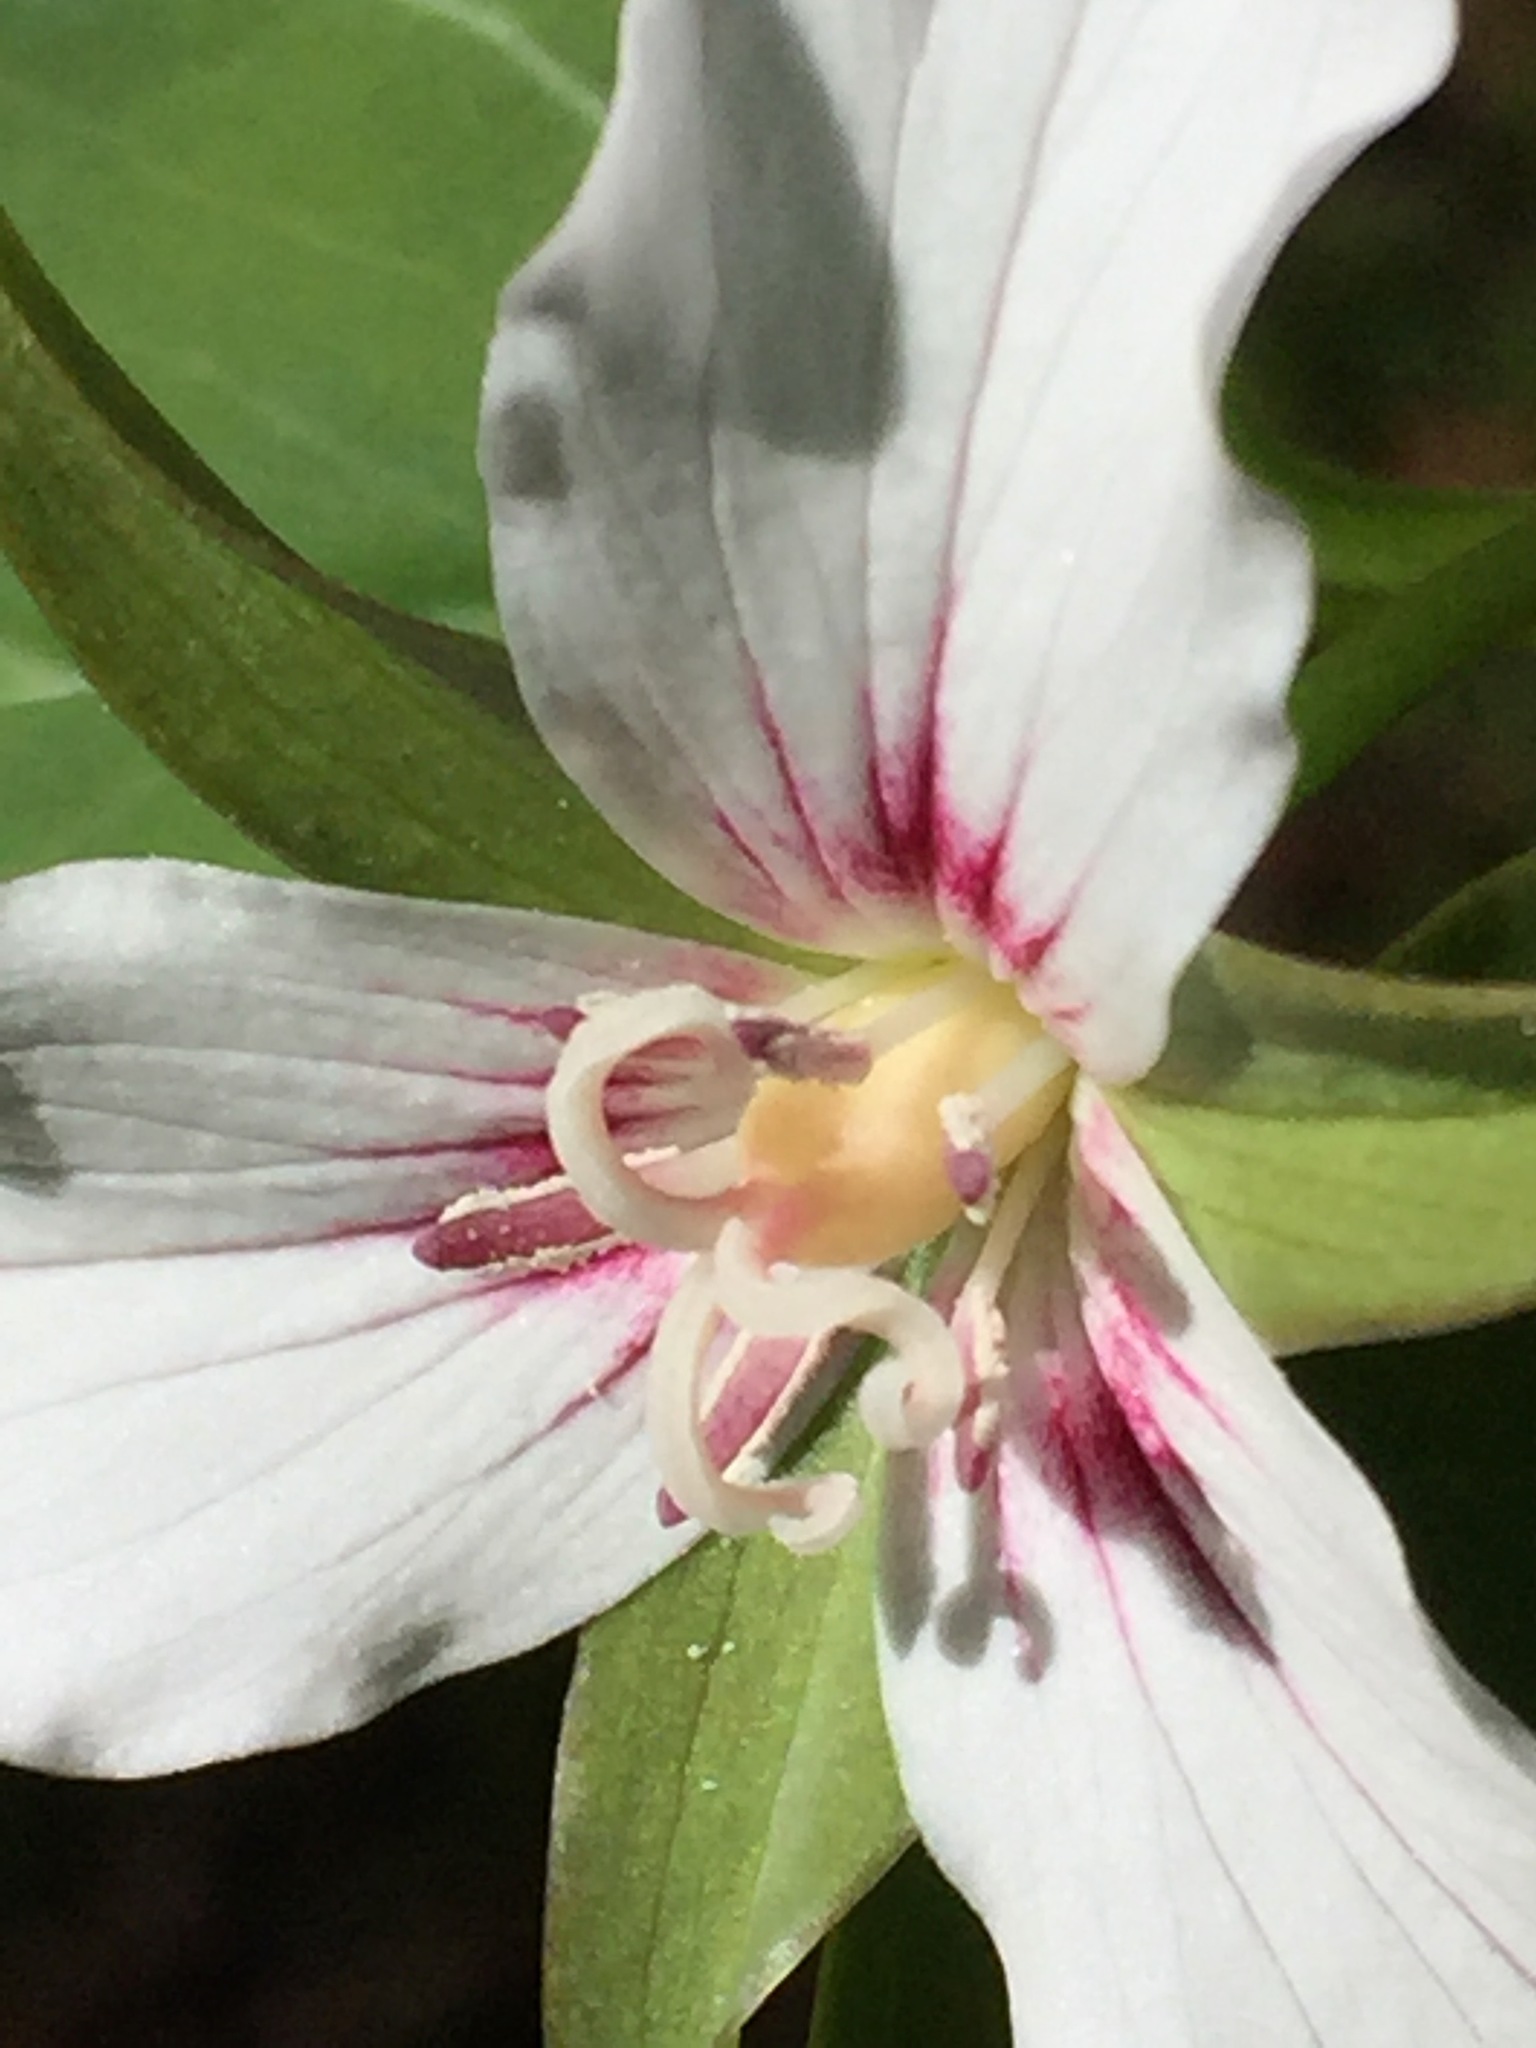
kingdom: Plantae
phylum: Tracheophyta
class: Liliopsida
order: Liliales
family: Melanthiaceae
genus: Trillium
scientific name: Trillium undulatum
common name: Paint trillium
